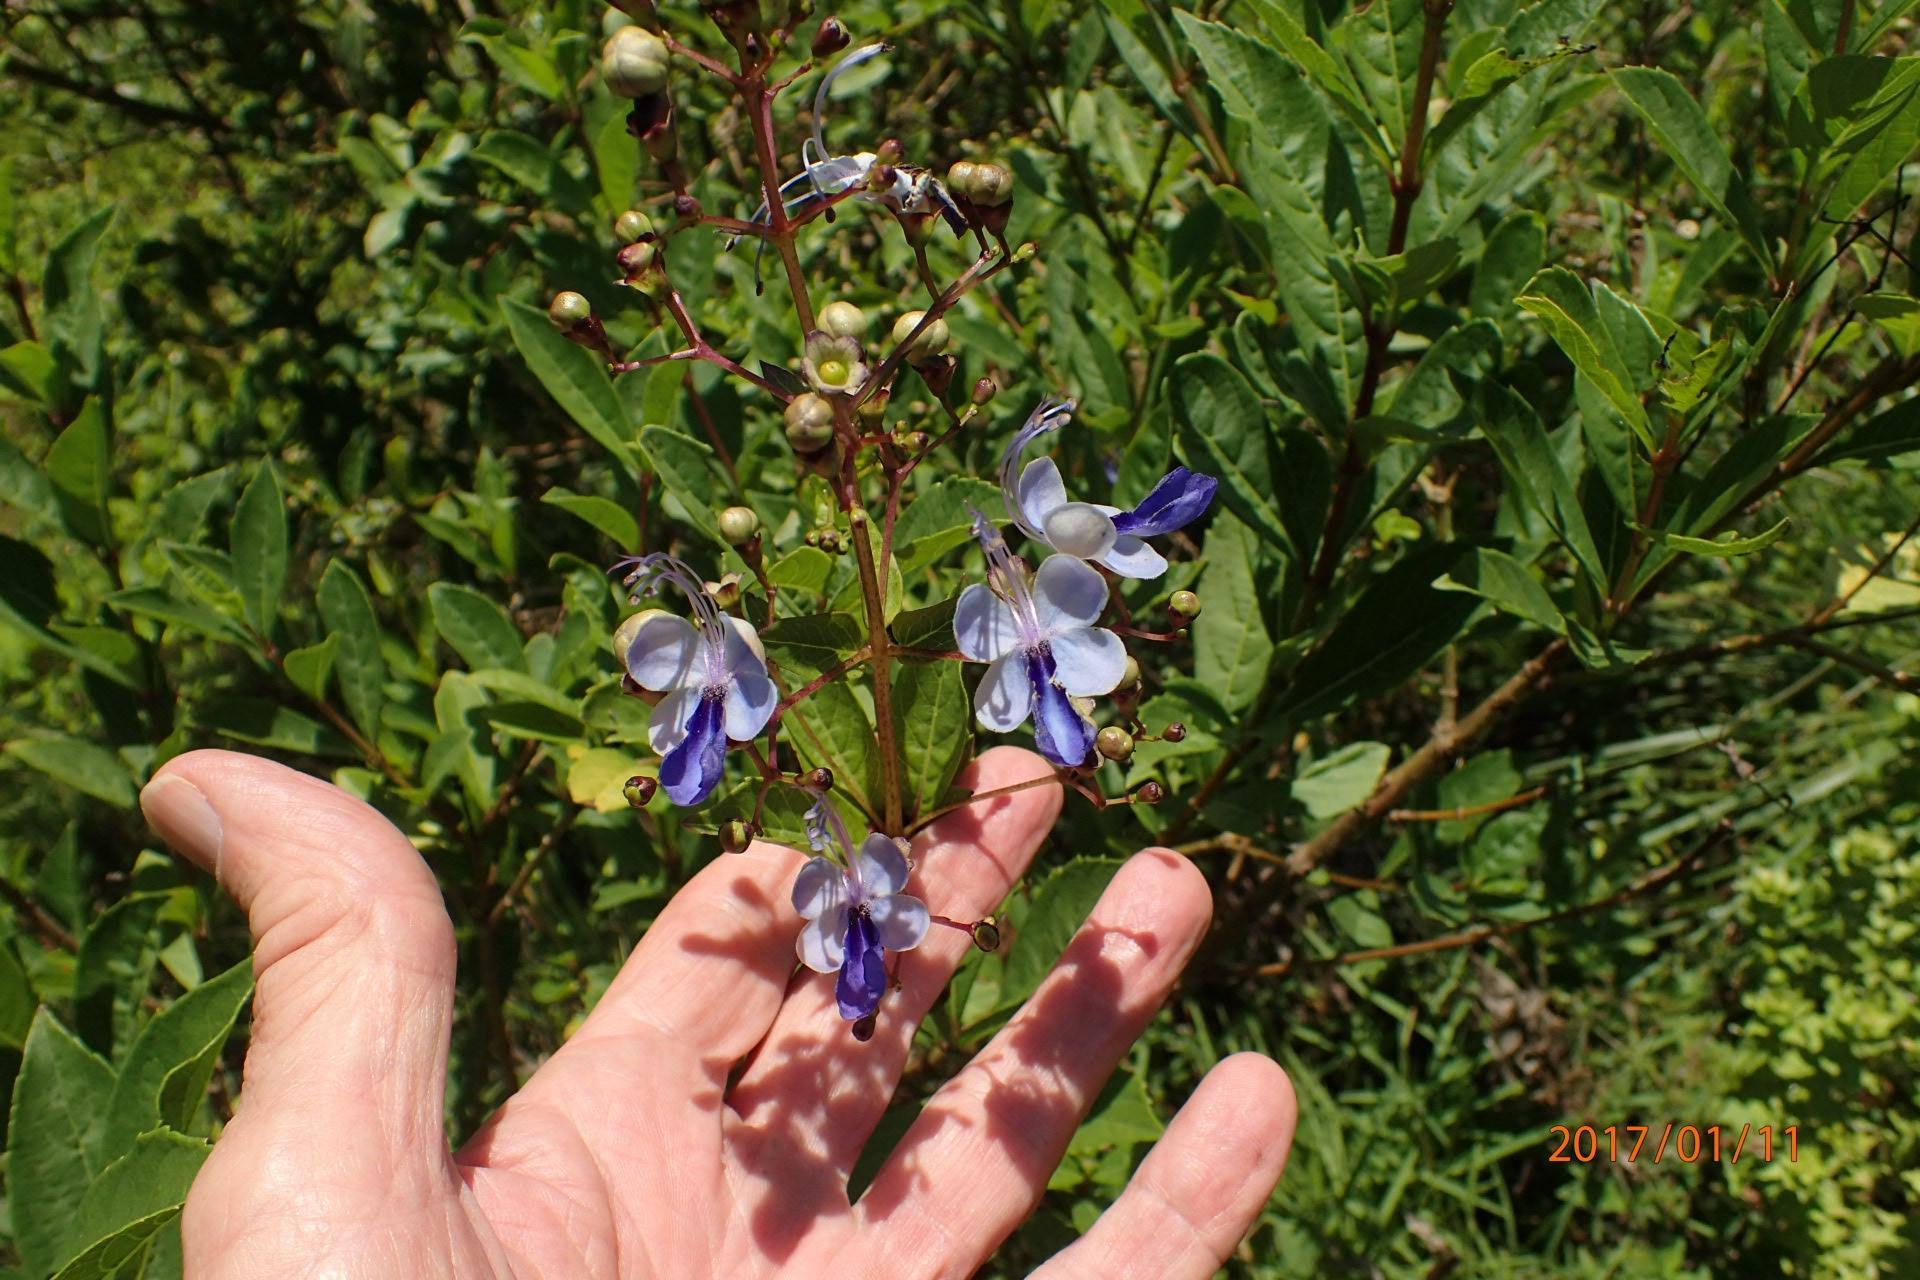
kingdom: Plantae
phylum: Tracheophyta
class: Magnoliopsida
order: Lamiales
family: Lamiaceae
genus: Rotheca
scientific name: Rotheca myricoides
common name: Cats-whiskers
